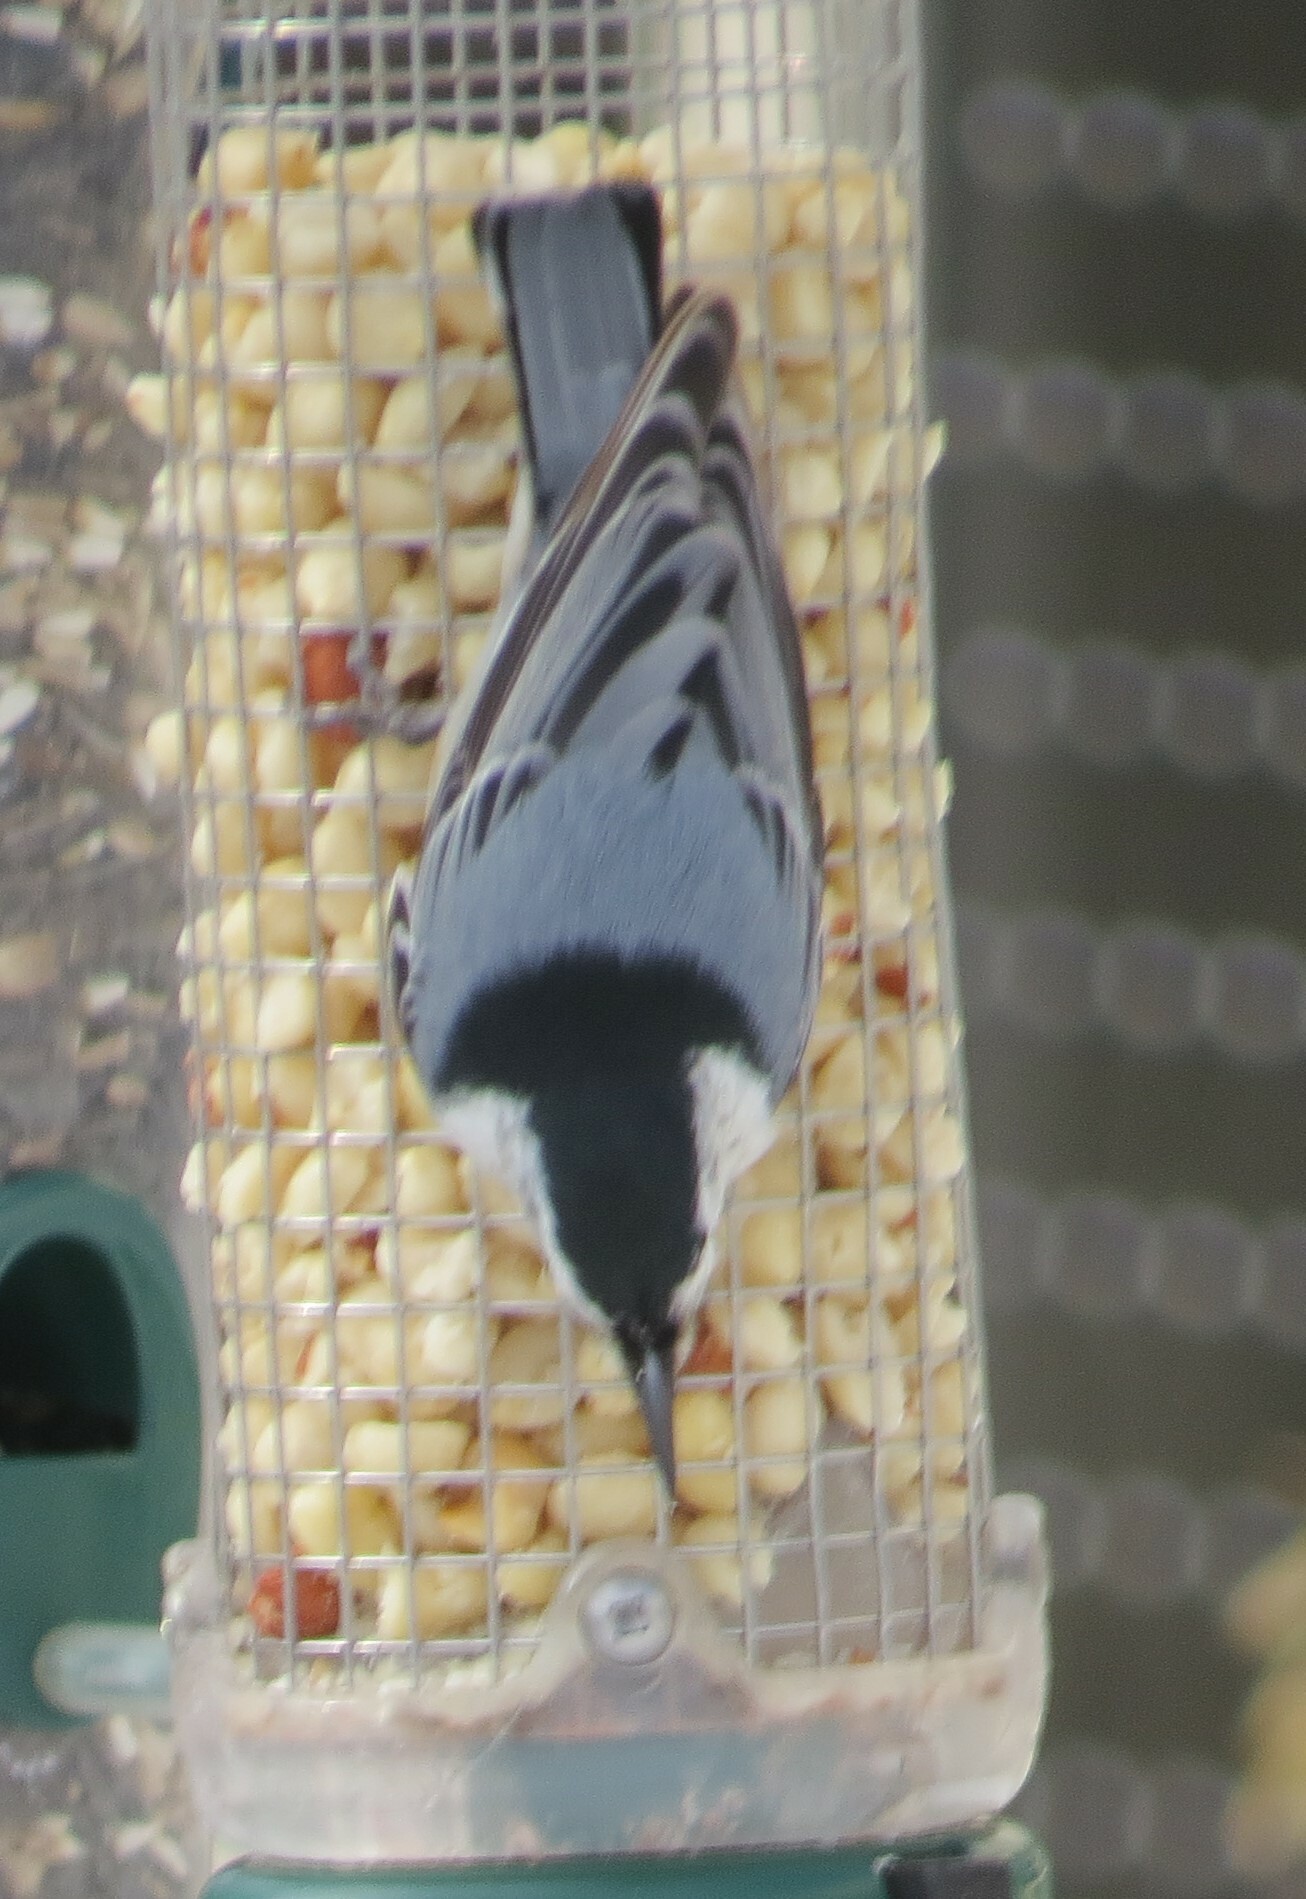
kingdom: Animalia
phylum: Chordata
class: Aves
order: Passeriformes
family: Sittidae
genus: Sitta
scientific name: Sitta carolinensis
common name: White-breasted nuthatch
